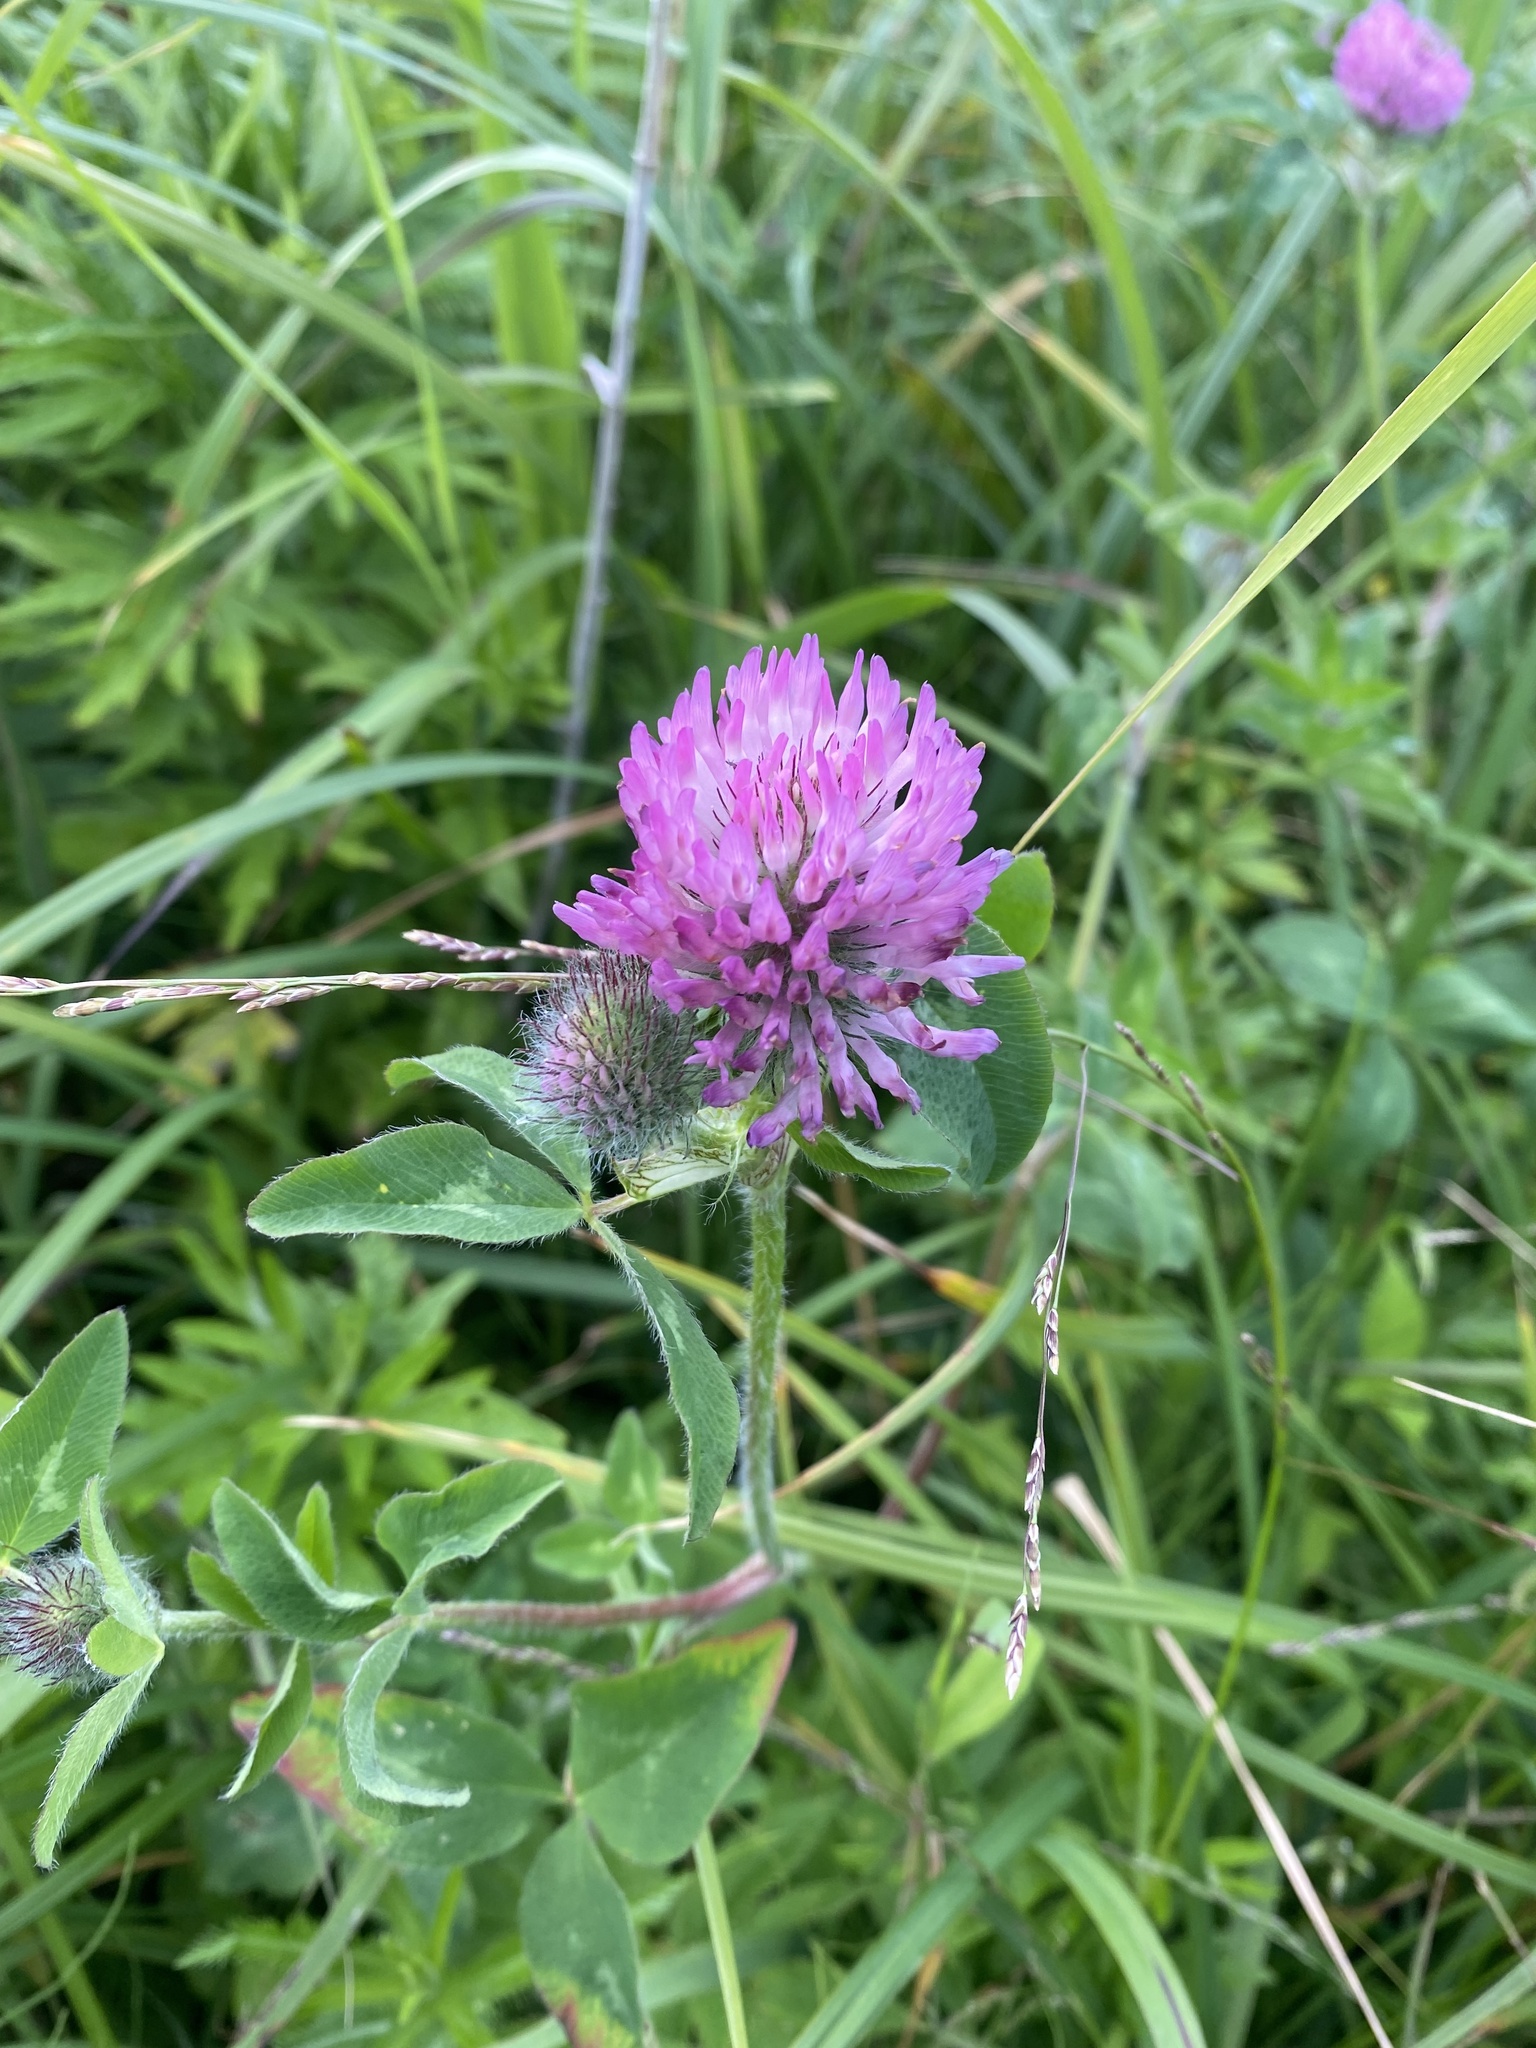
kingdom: Plantae
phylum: Tracheophyta
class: Magnoliopsida
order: Fabales
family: Fabaceae
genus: Trifolium
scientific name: Trifolium pratense
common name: Red clover
